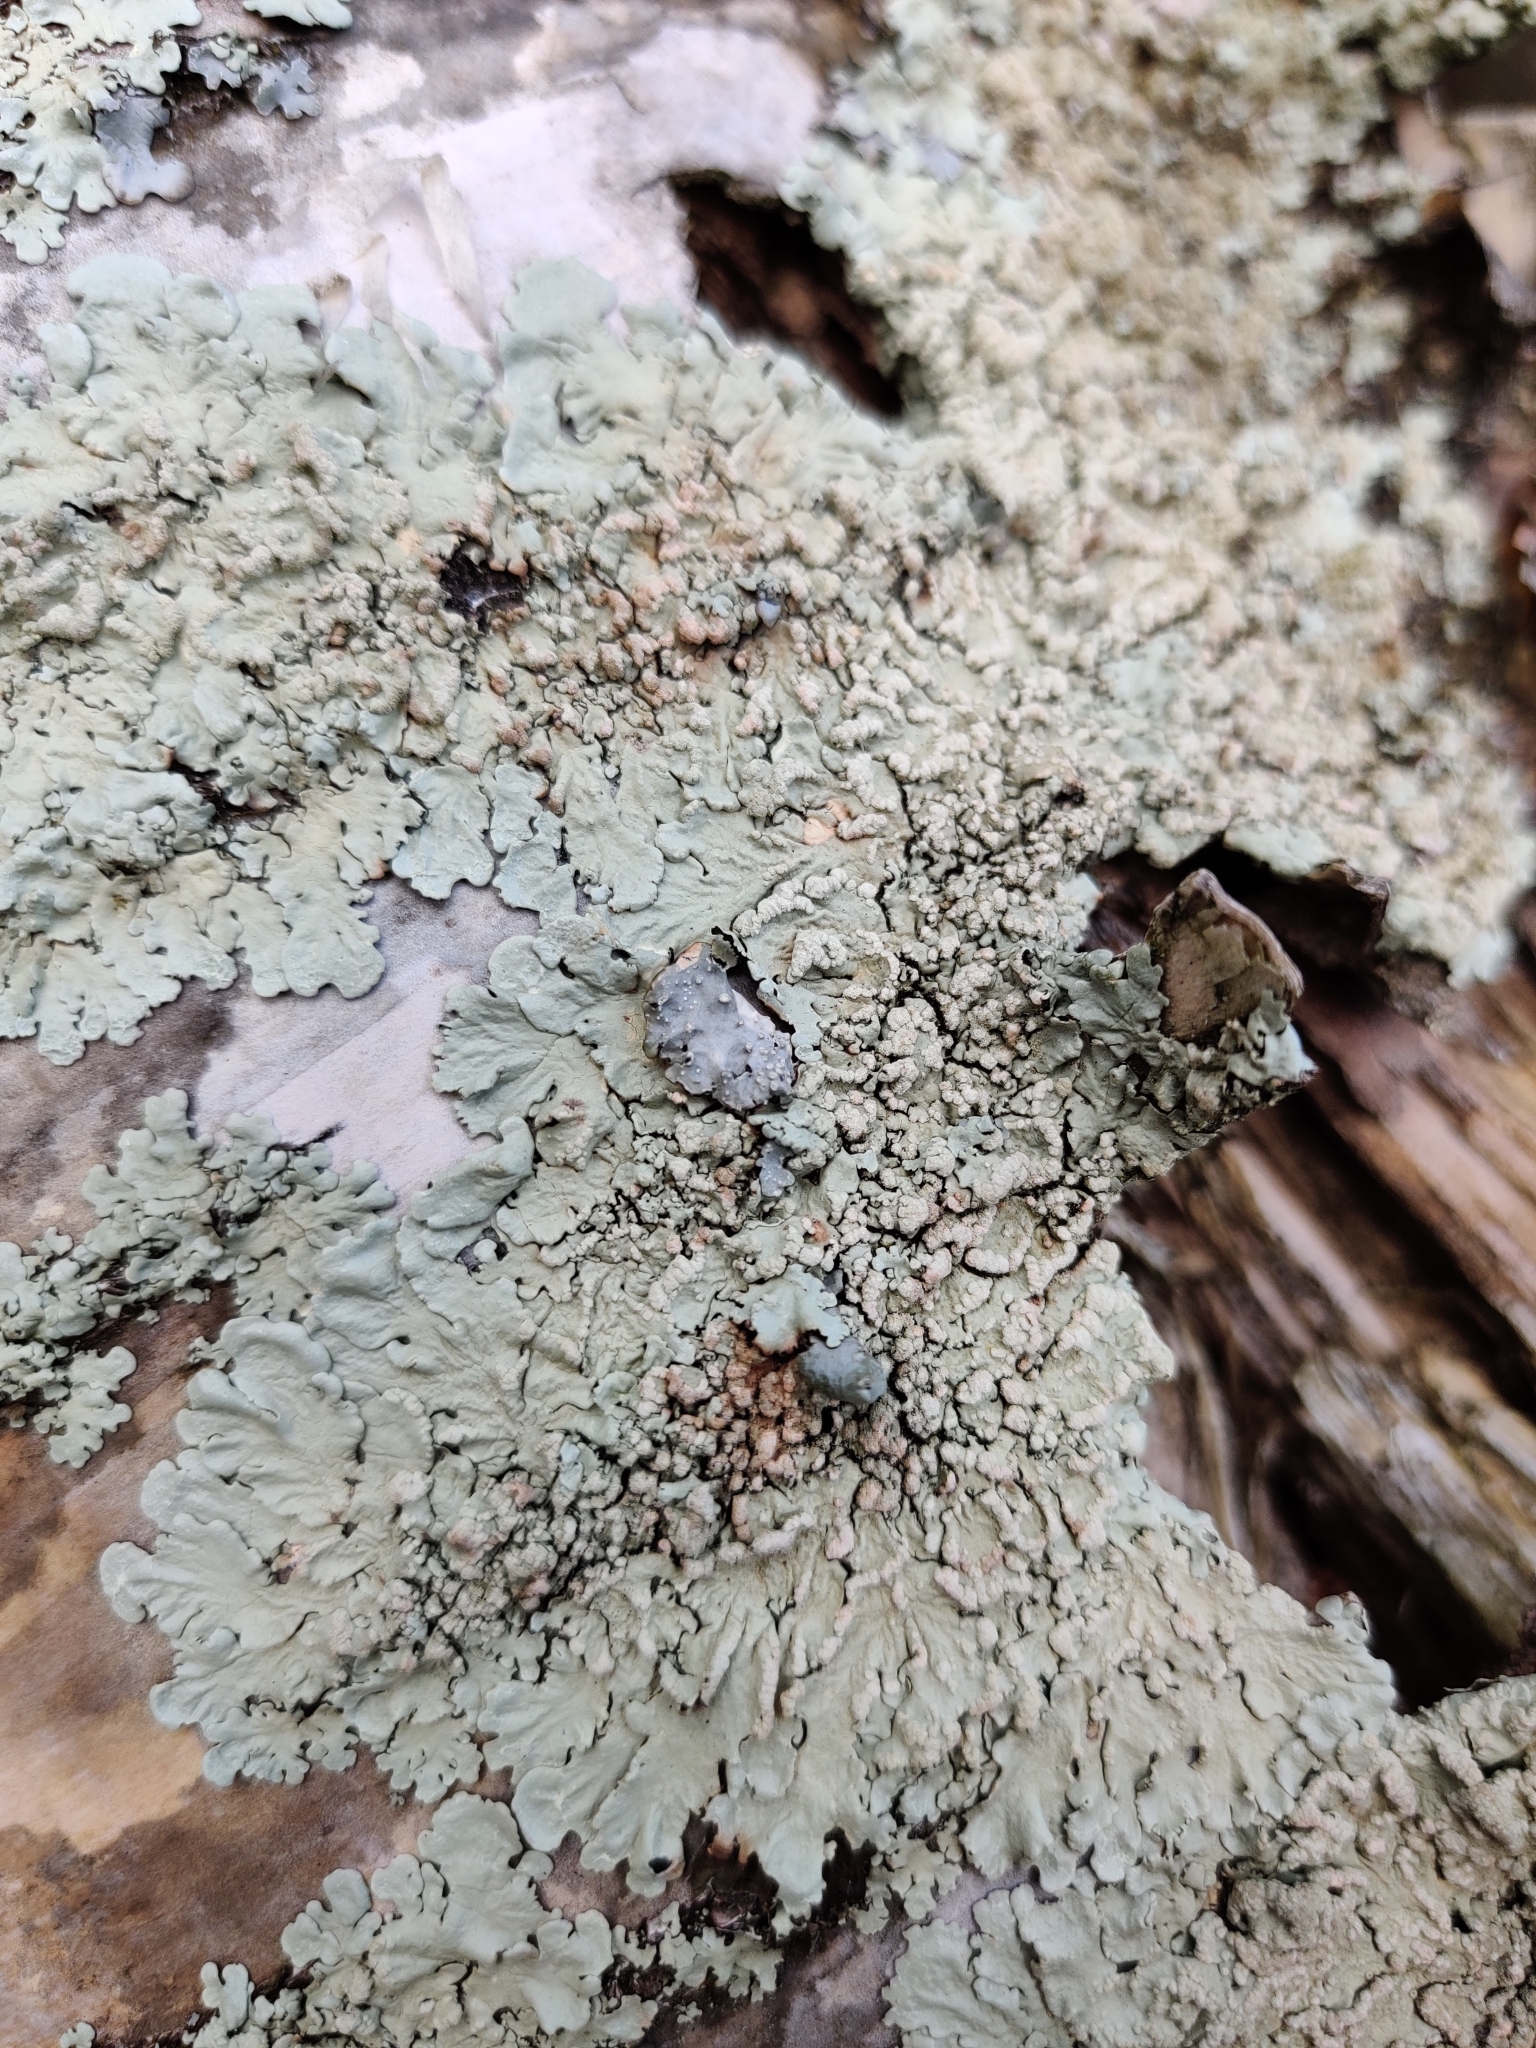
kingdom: Fungi
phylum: Ascomycota
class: Lecanoromycetes
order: Lecanorales
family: Parmeliaceae
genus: Flavoparmelia
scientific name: Flavoparmelia soredians
